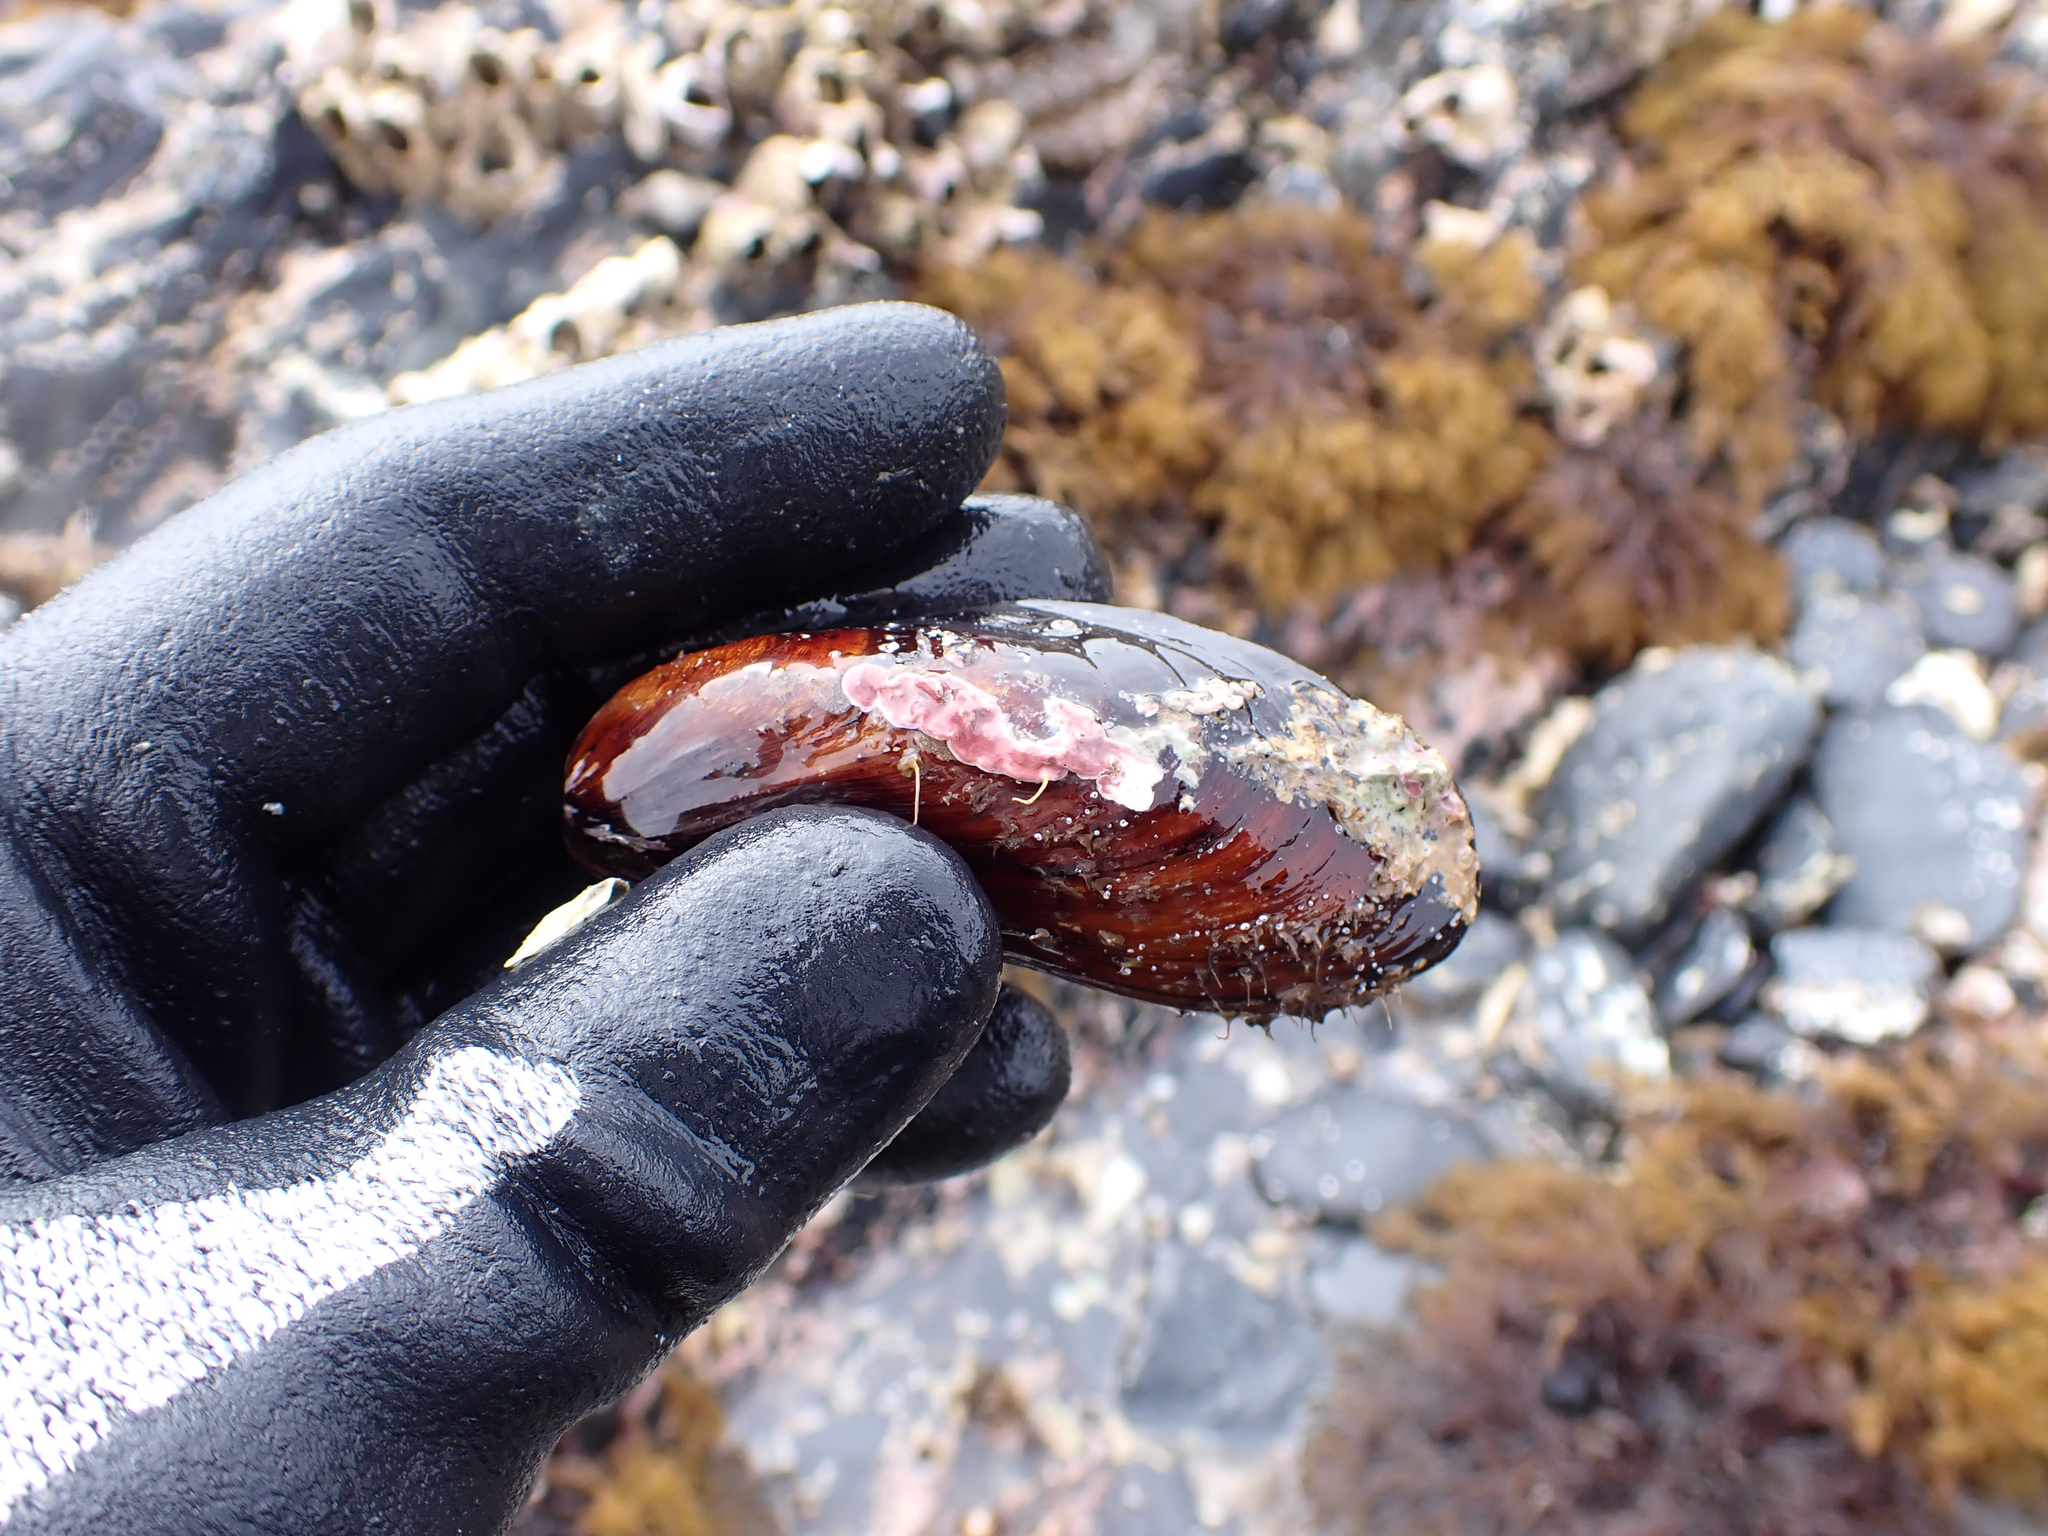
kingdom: Animalia
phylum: Mollusca
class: Bivalvia
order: Mytilida
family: Mytilidae
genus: Modiolus
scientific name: Modiolus modiolus
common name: Horse-mussel
